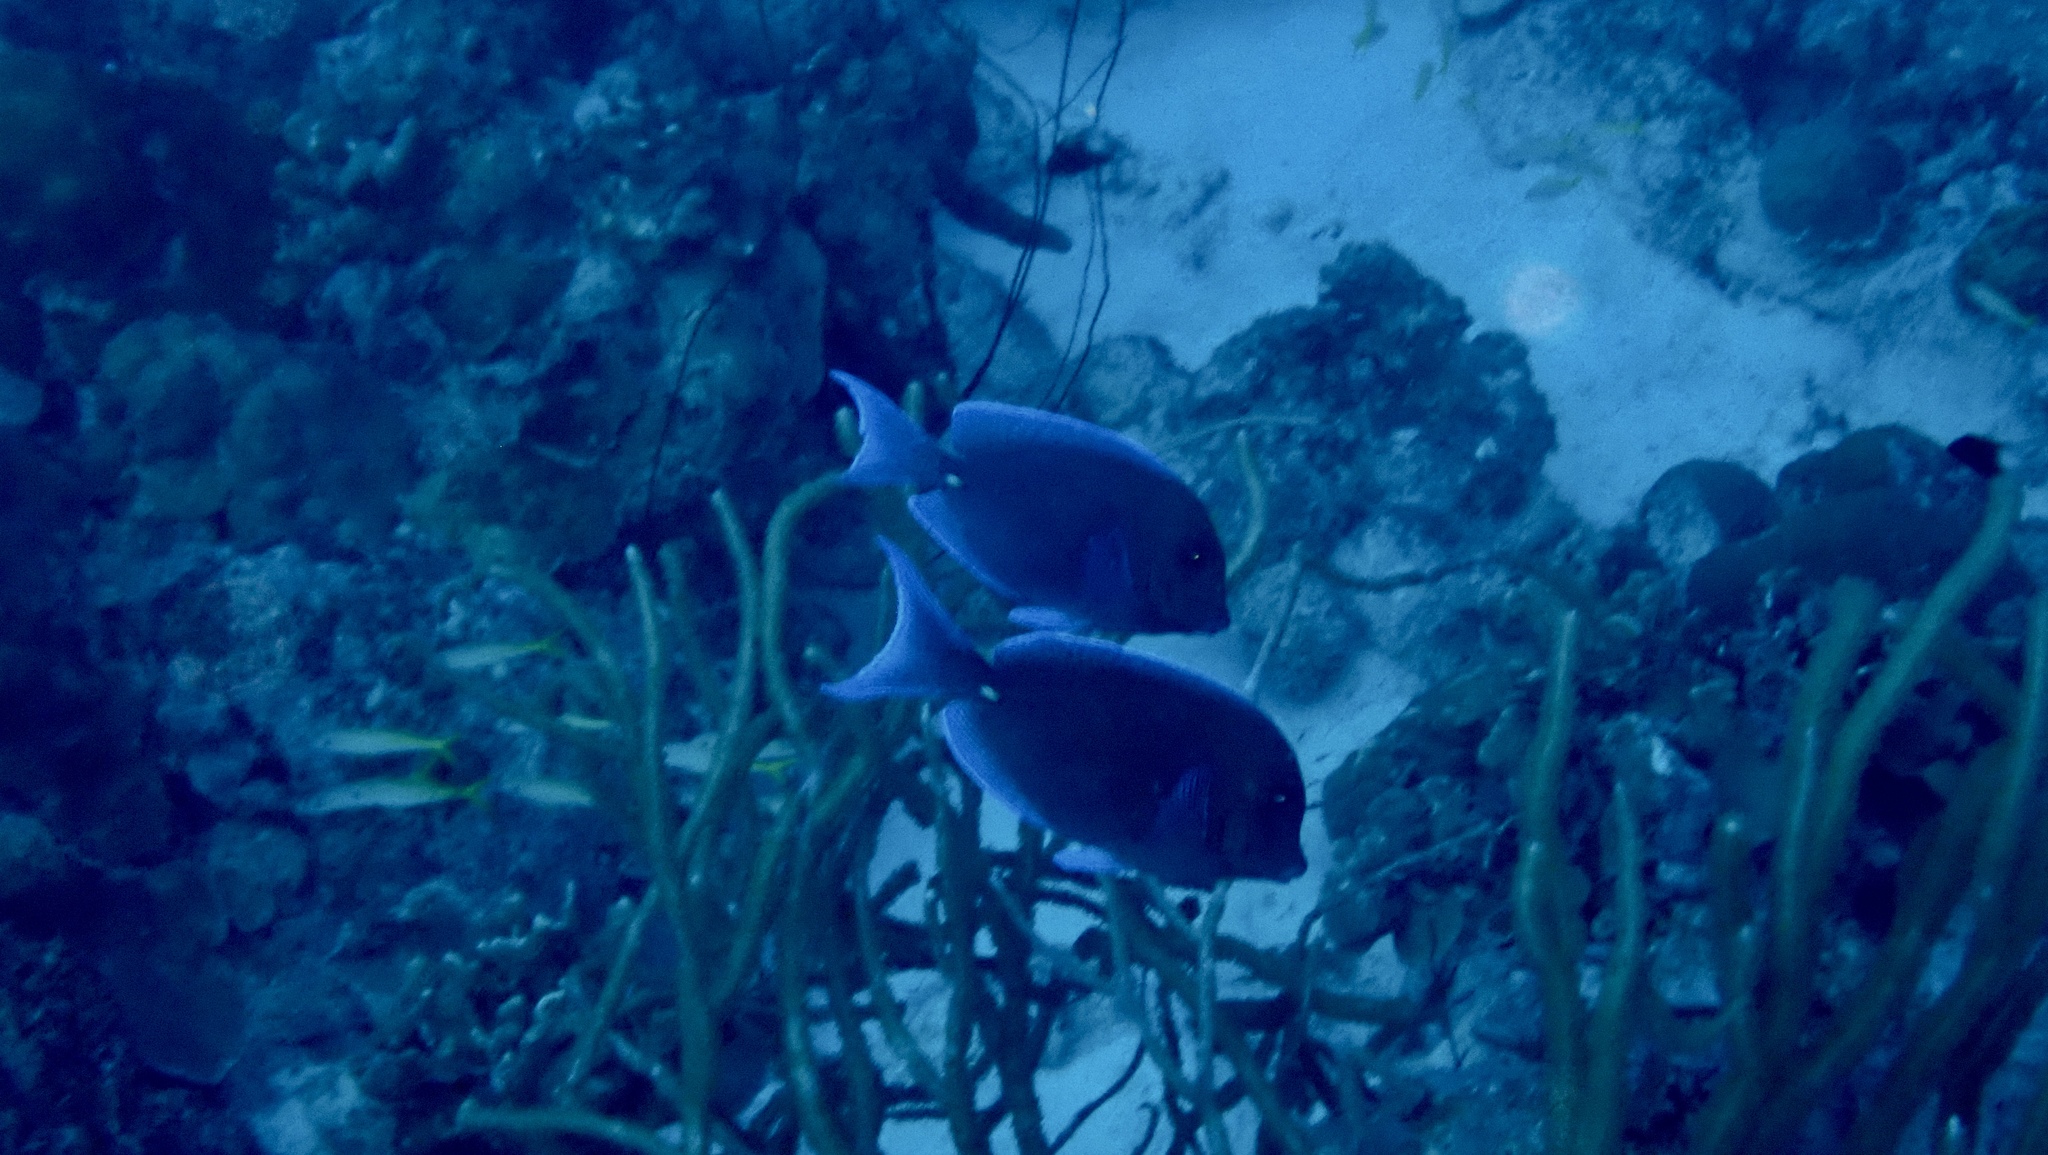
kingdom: Animalia
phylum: Chordata
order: Perciformes
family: Acanthuridae
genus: Acanthurus
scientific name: Acanthurus coeruleus
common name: Blue tang
